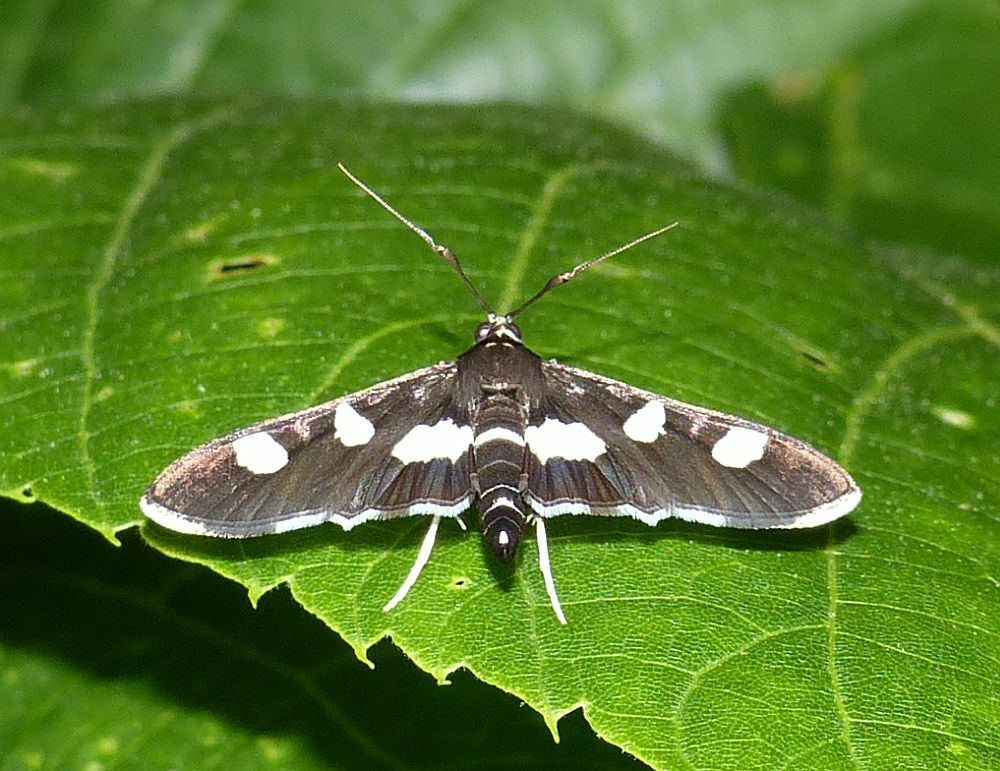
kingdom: Animalia
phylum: Arthropoda
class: Insecta
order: Lepidoptera
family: Crambidae
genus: Desmia
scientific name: Desmia
